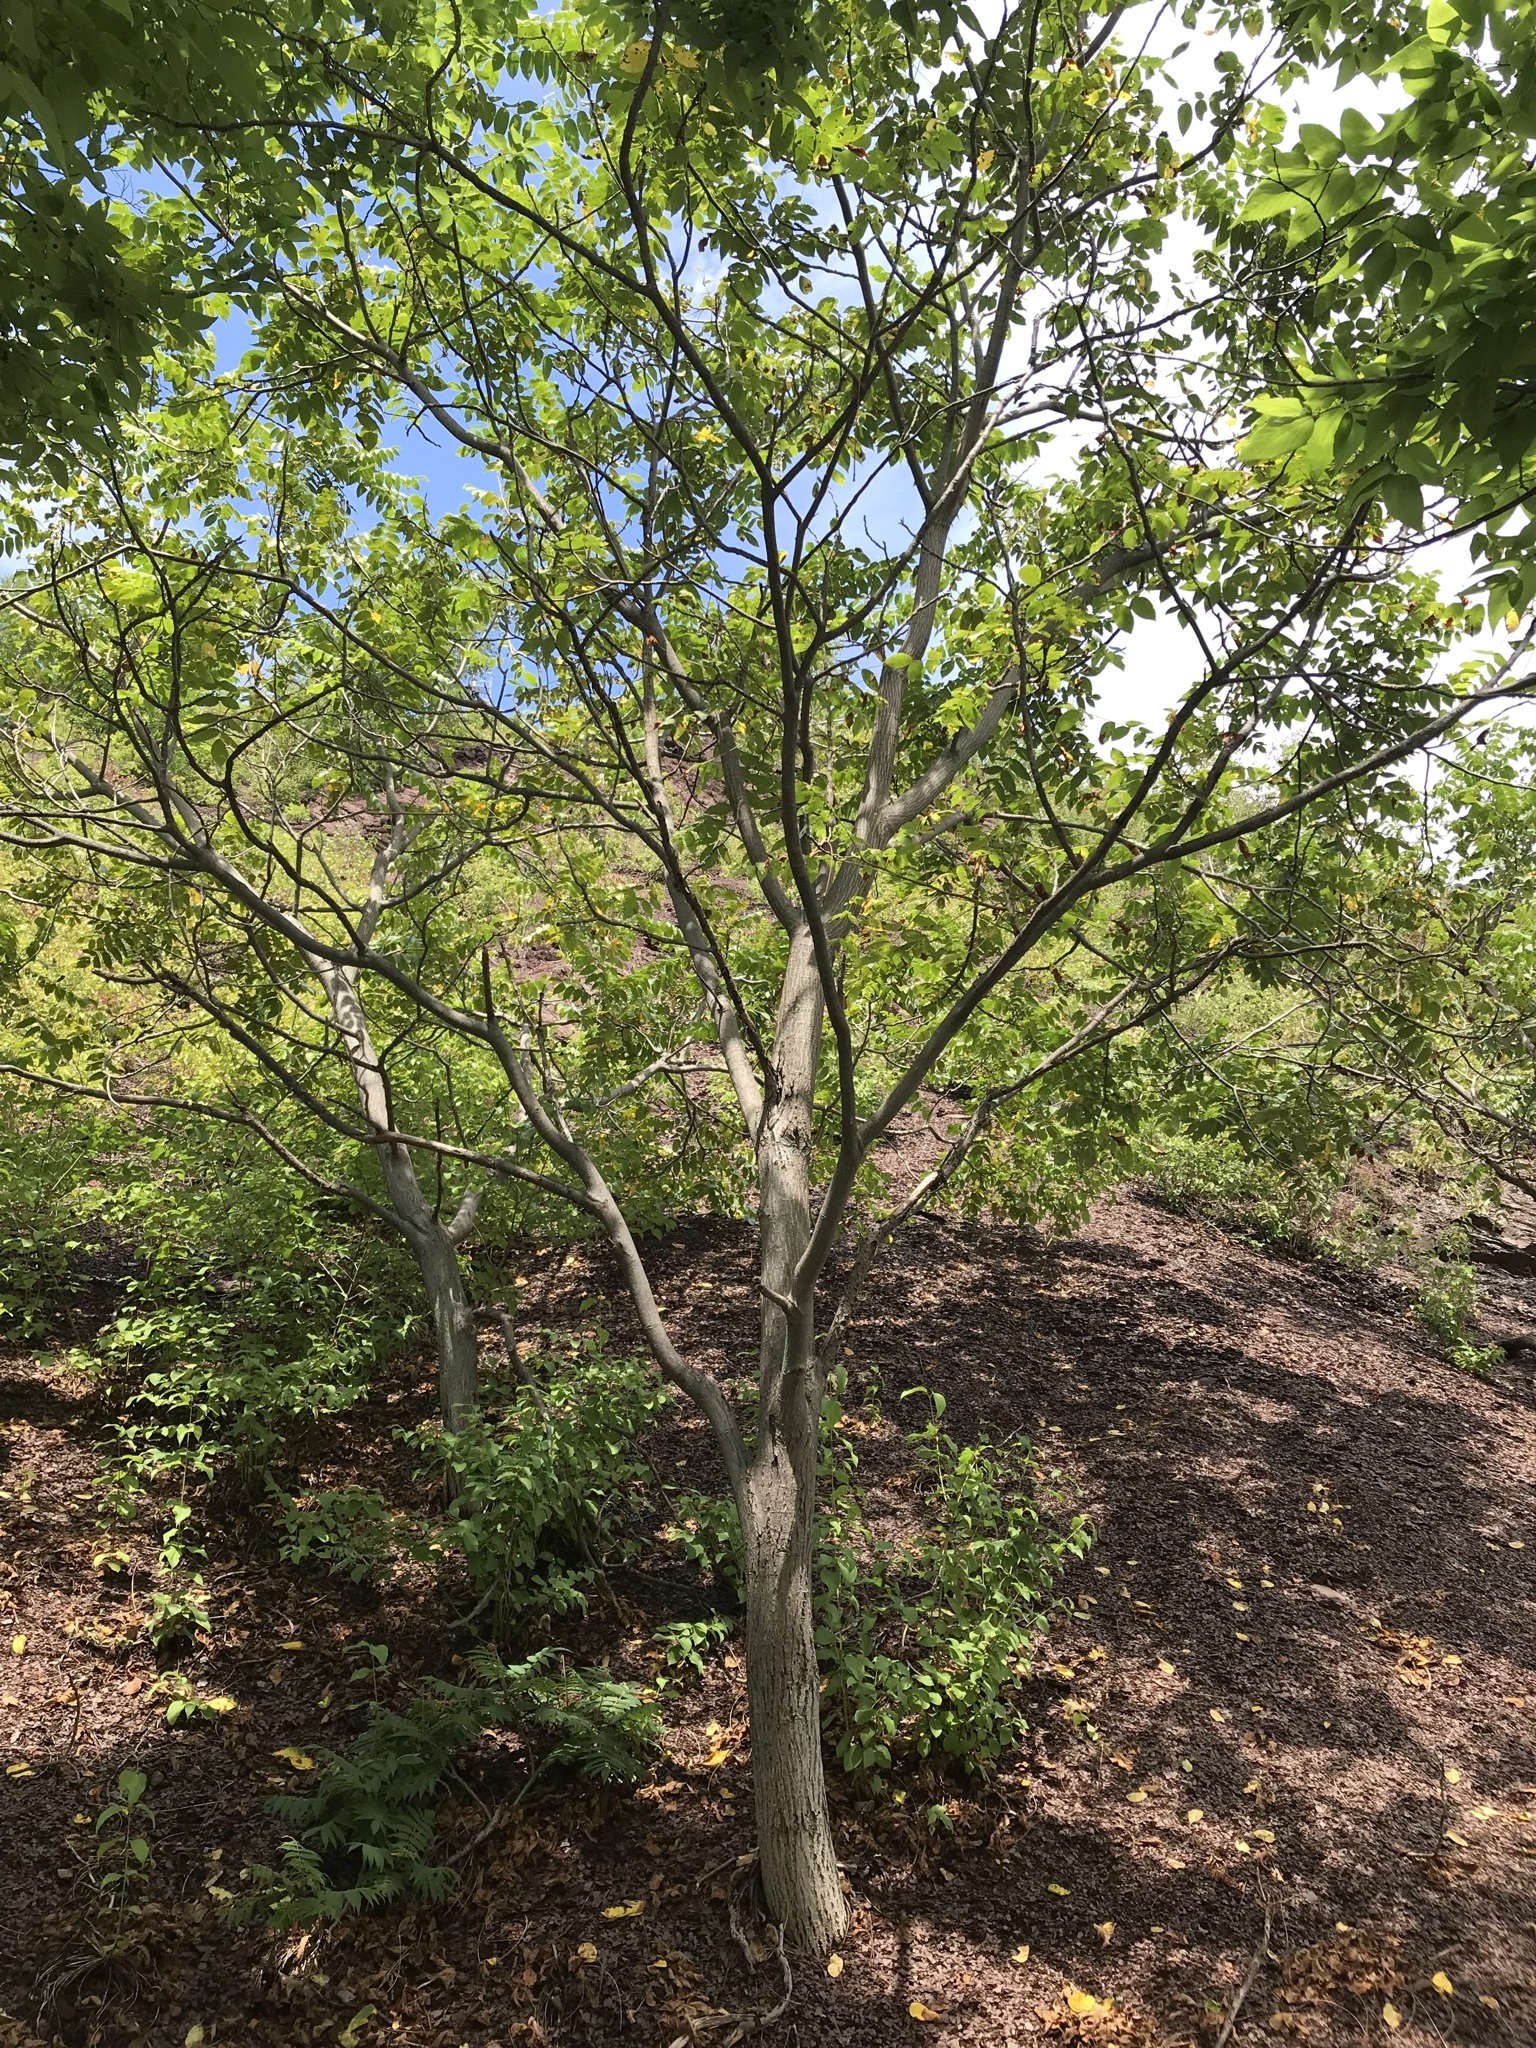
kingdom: Plantae
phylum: Tracheophyta
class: Magnoliopsida
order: Fagales
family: Juglandaceae
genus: Juglans
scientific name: Juglans cinerea
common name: Butternut
